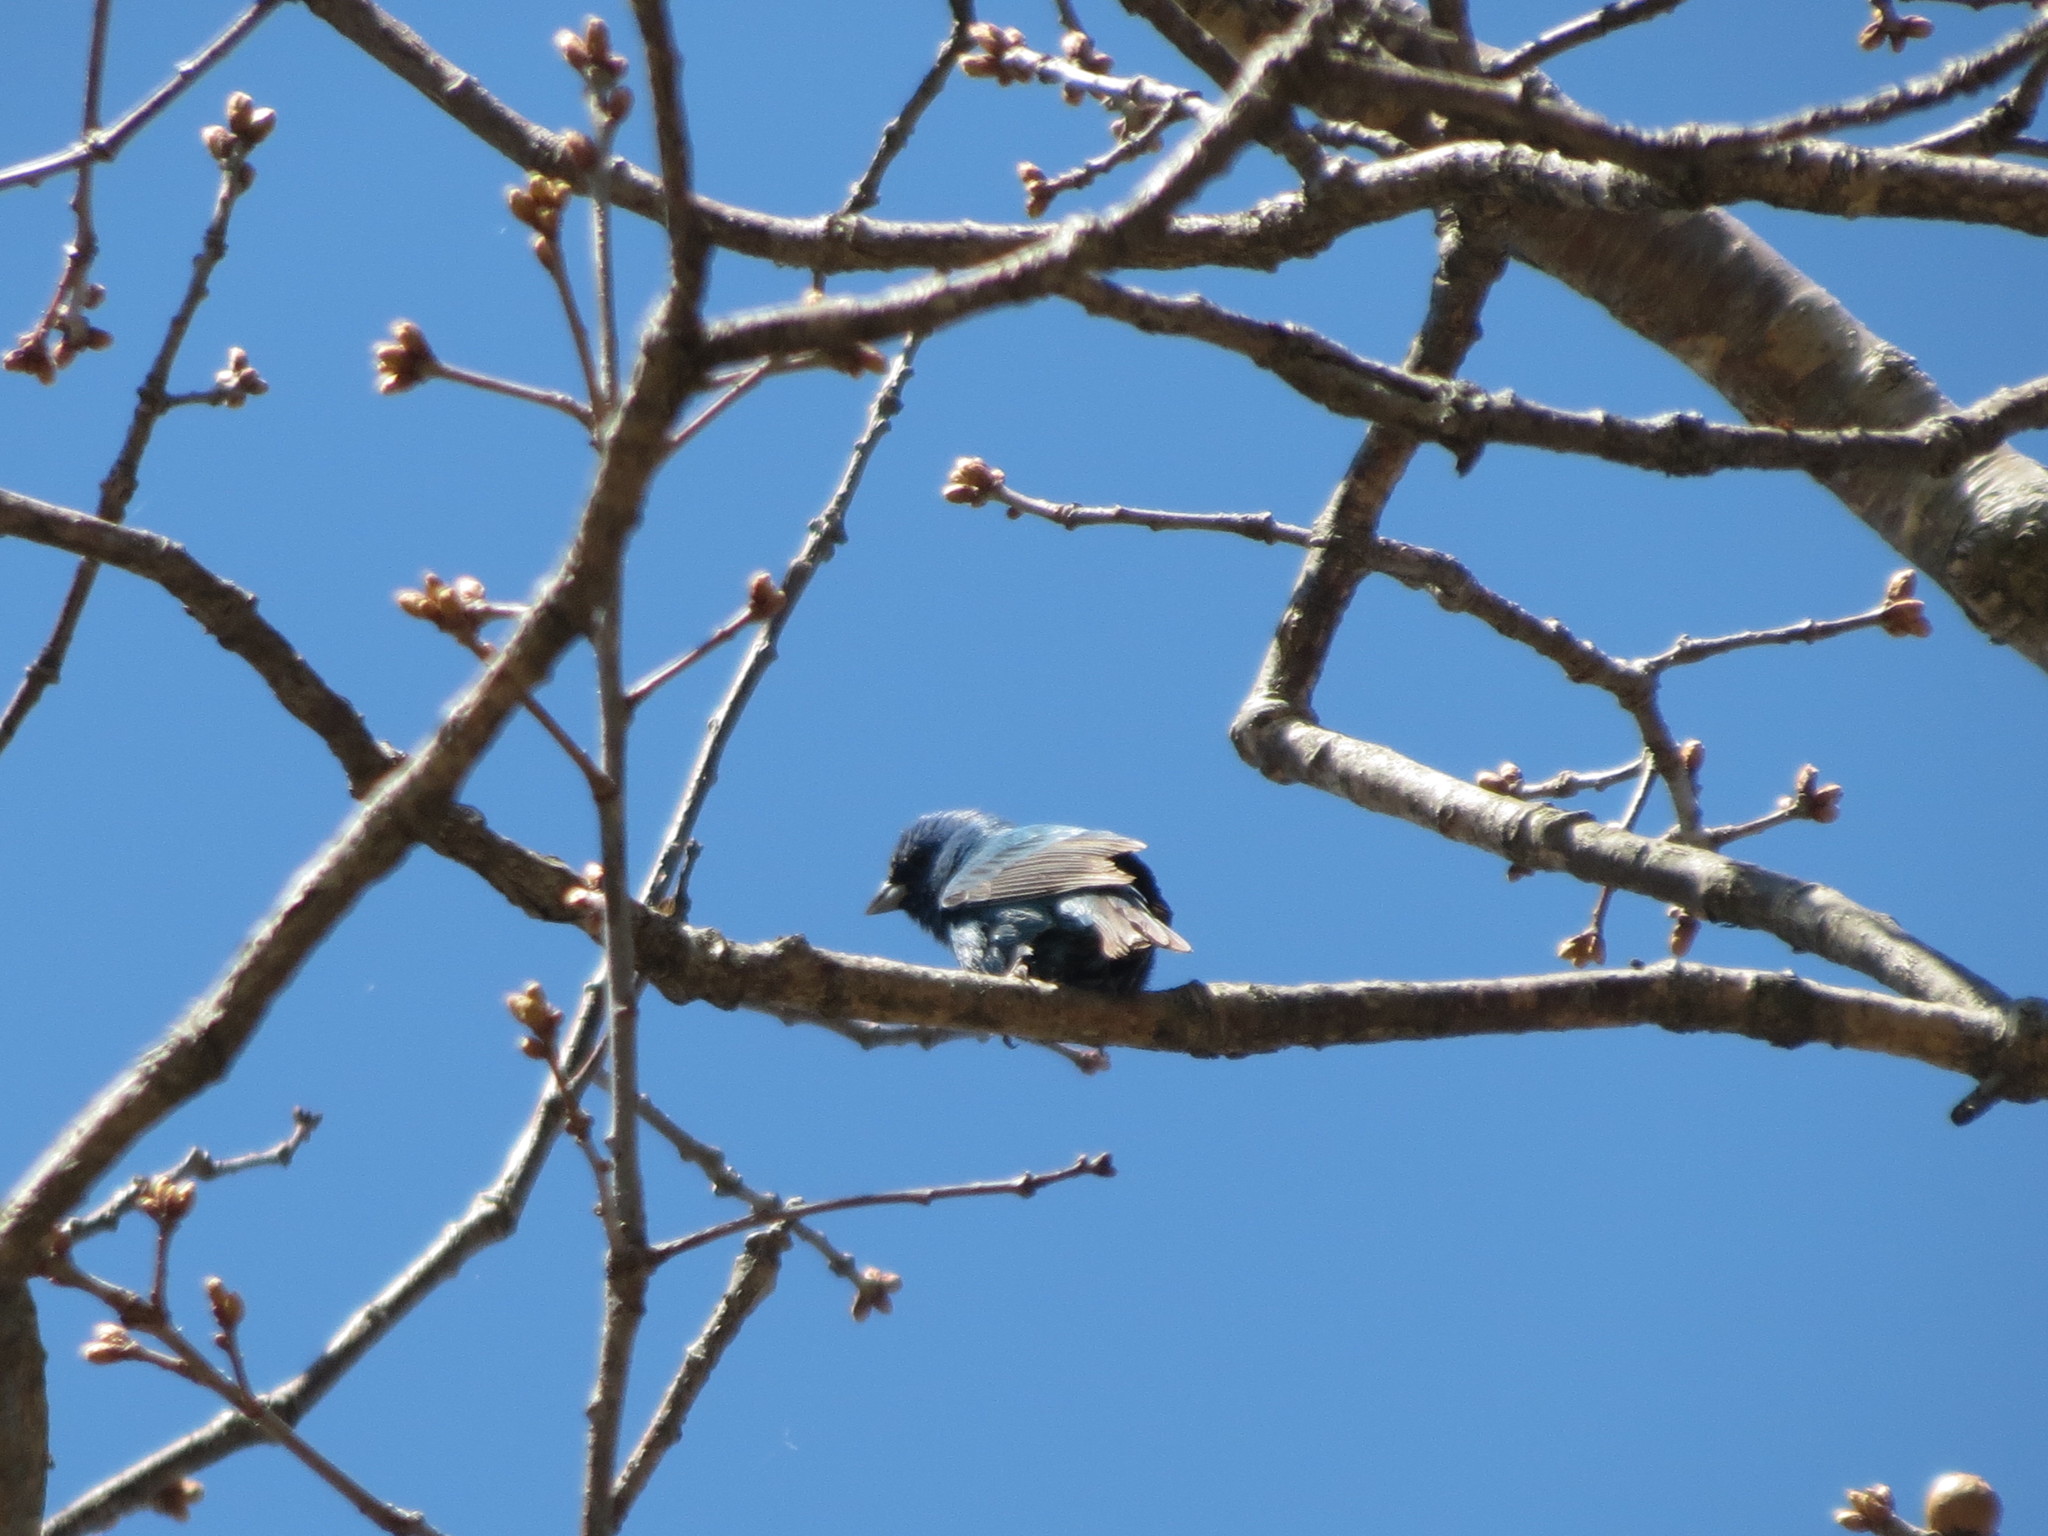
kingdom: Animalia
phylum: Chordata
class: Aves
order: Passeriformes
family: Cardinalidae
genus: Passerina
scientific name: Passerina cyanea
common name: Indigo bunting
